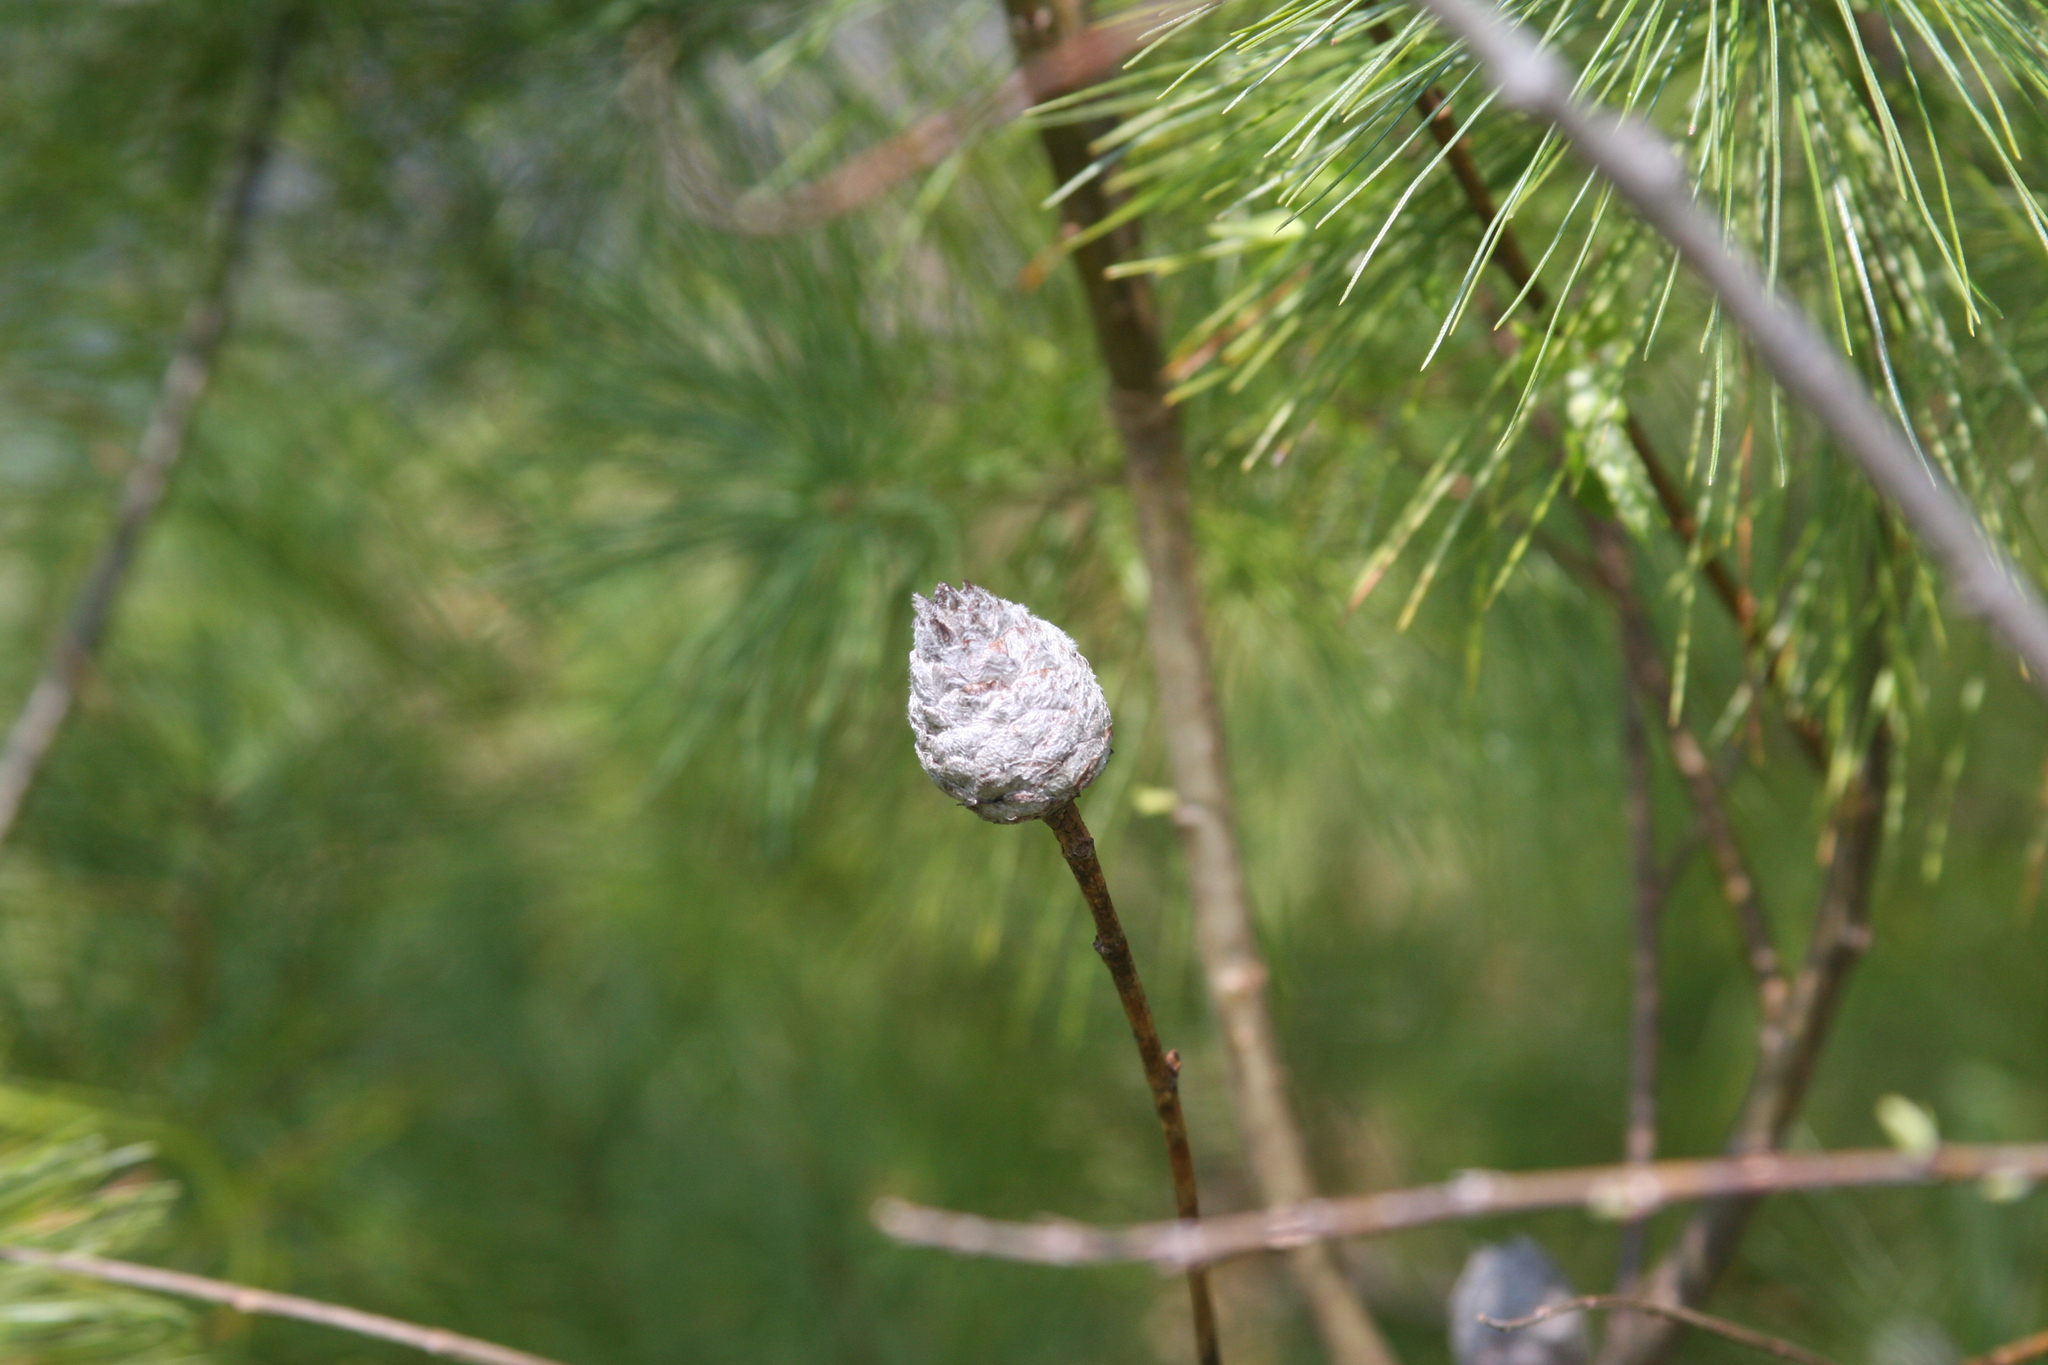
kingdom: Animalia
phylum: Arthropoda
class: Insecta
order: Diptera
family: Cecidomyiidae
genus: Rabdophaga
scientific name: Rabdophaga strobiloides
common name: Willow pinecone gall midge
